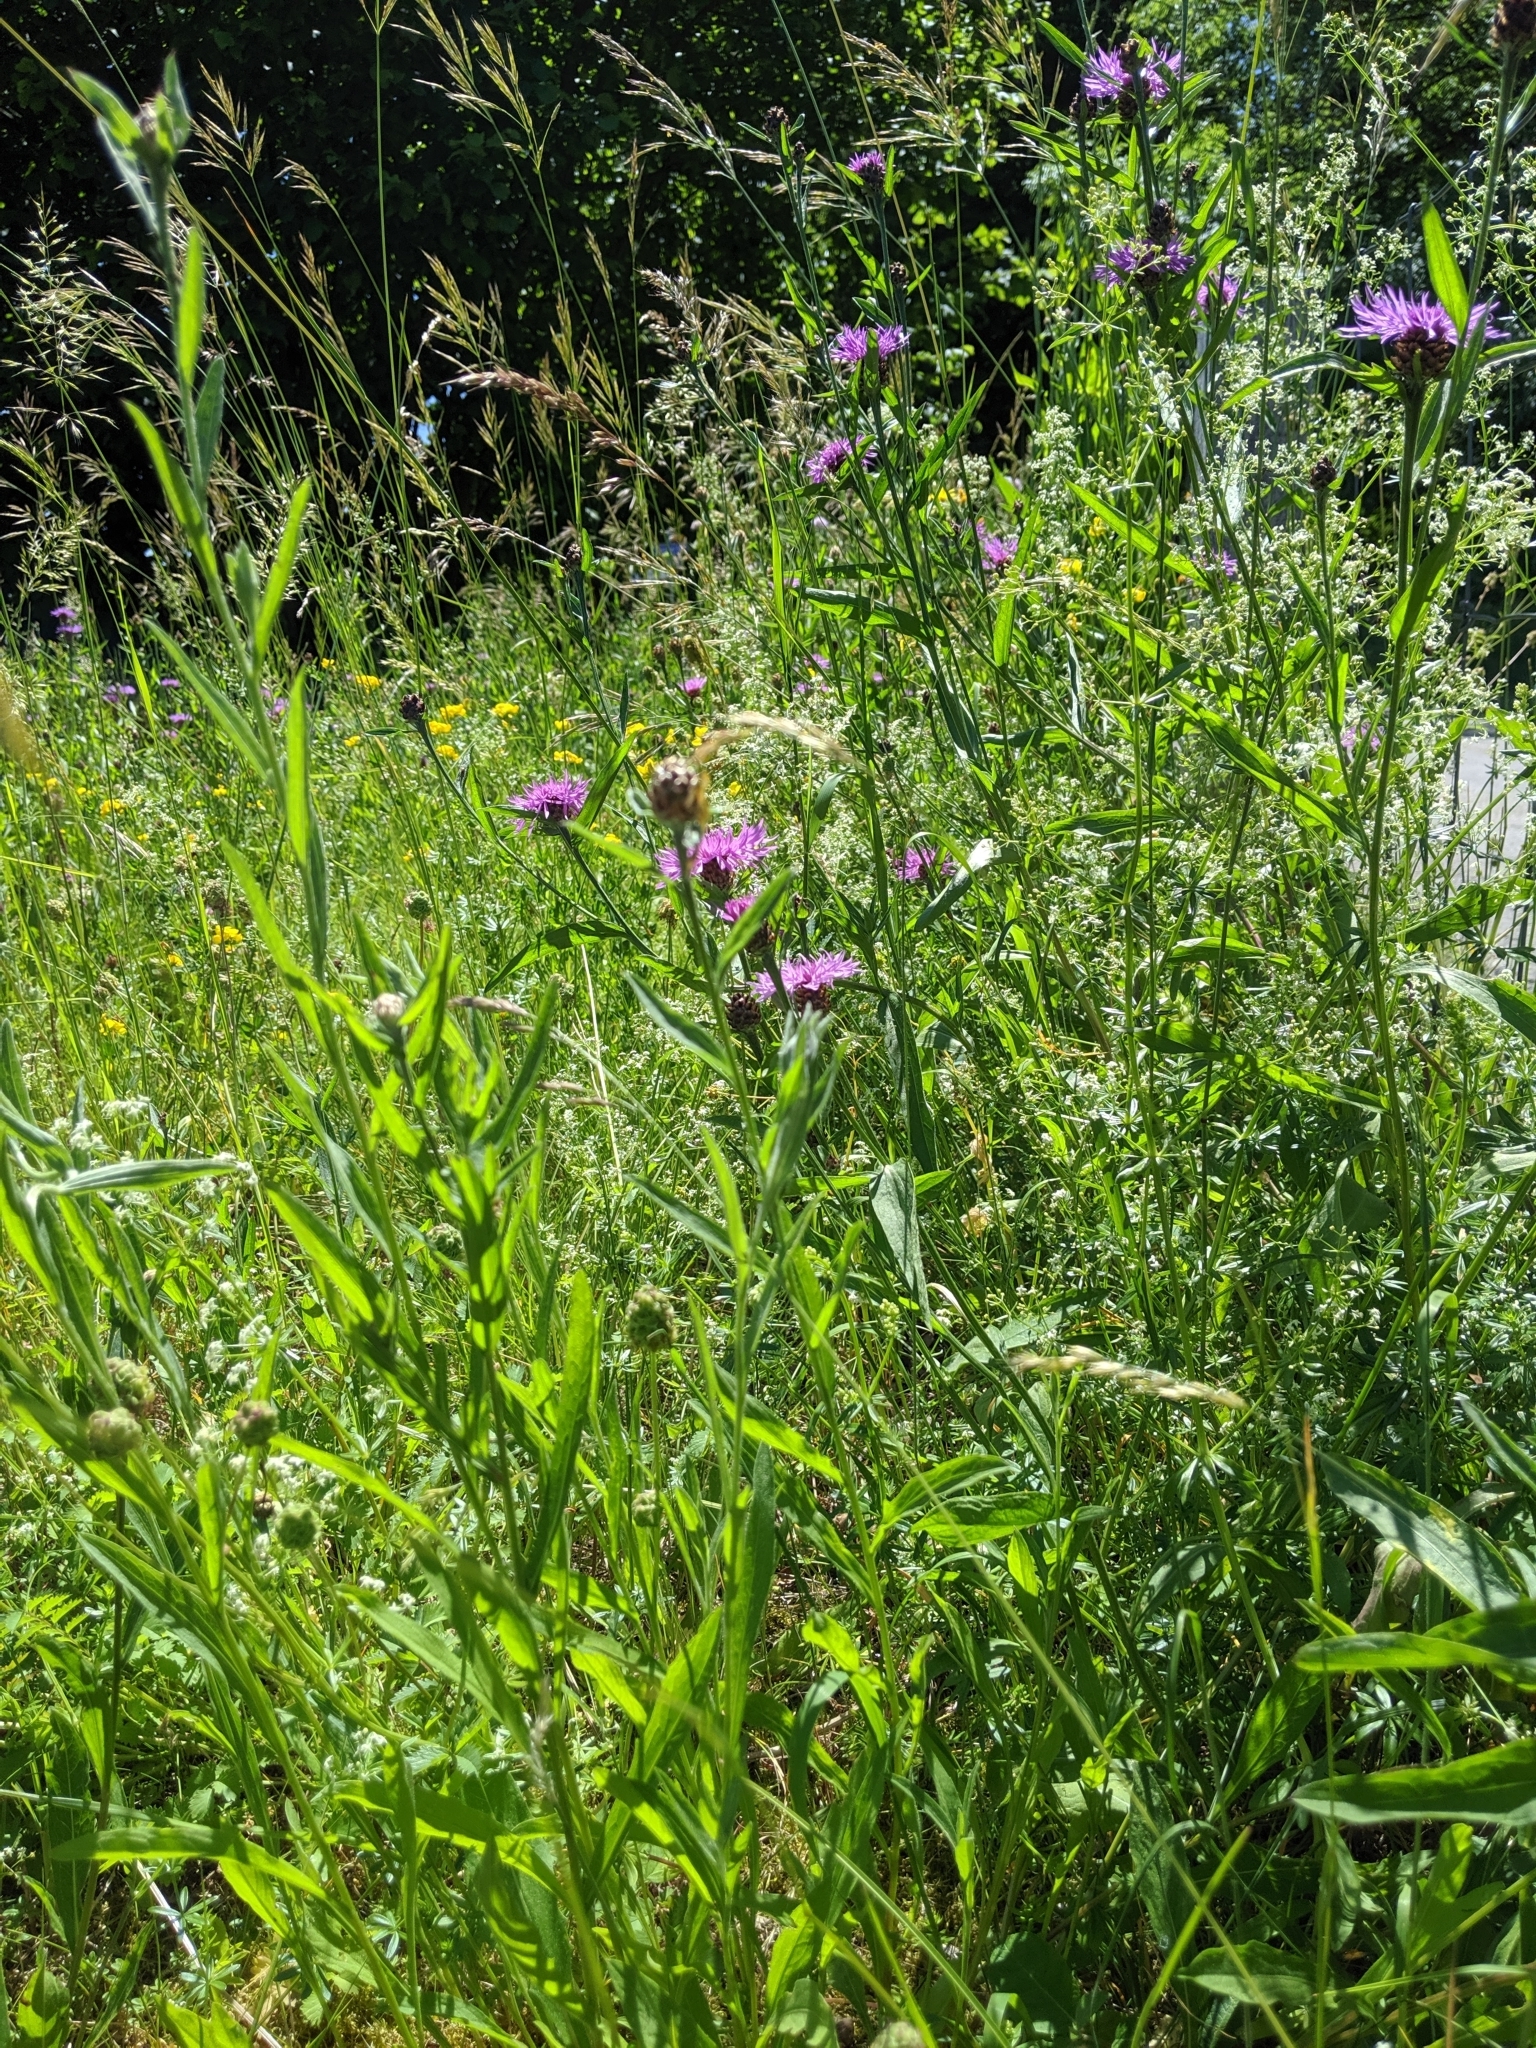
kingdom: Plantae
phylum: Tracheophyta
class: Magnoliopsida
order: Asterales
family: Asteraceae
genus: Centaurea
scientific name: Centaurea jacea
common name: Brown knapweed
